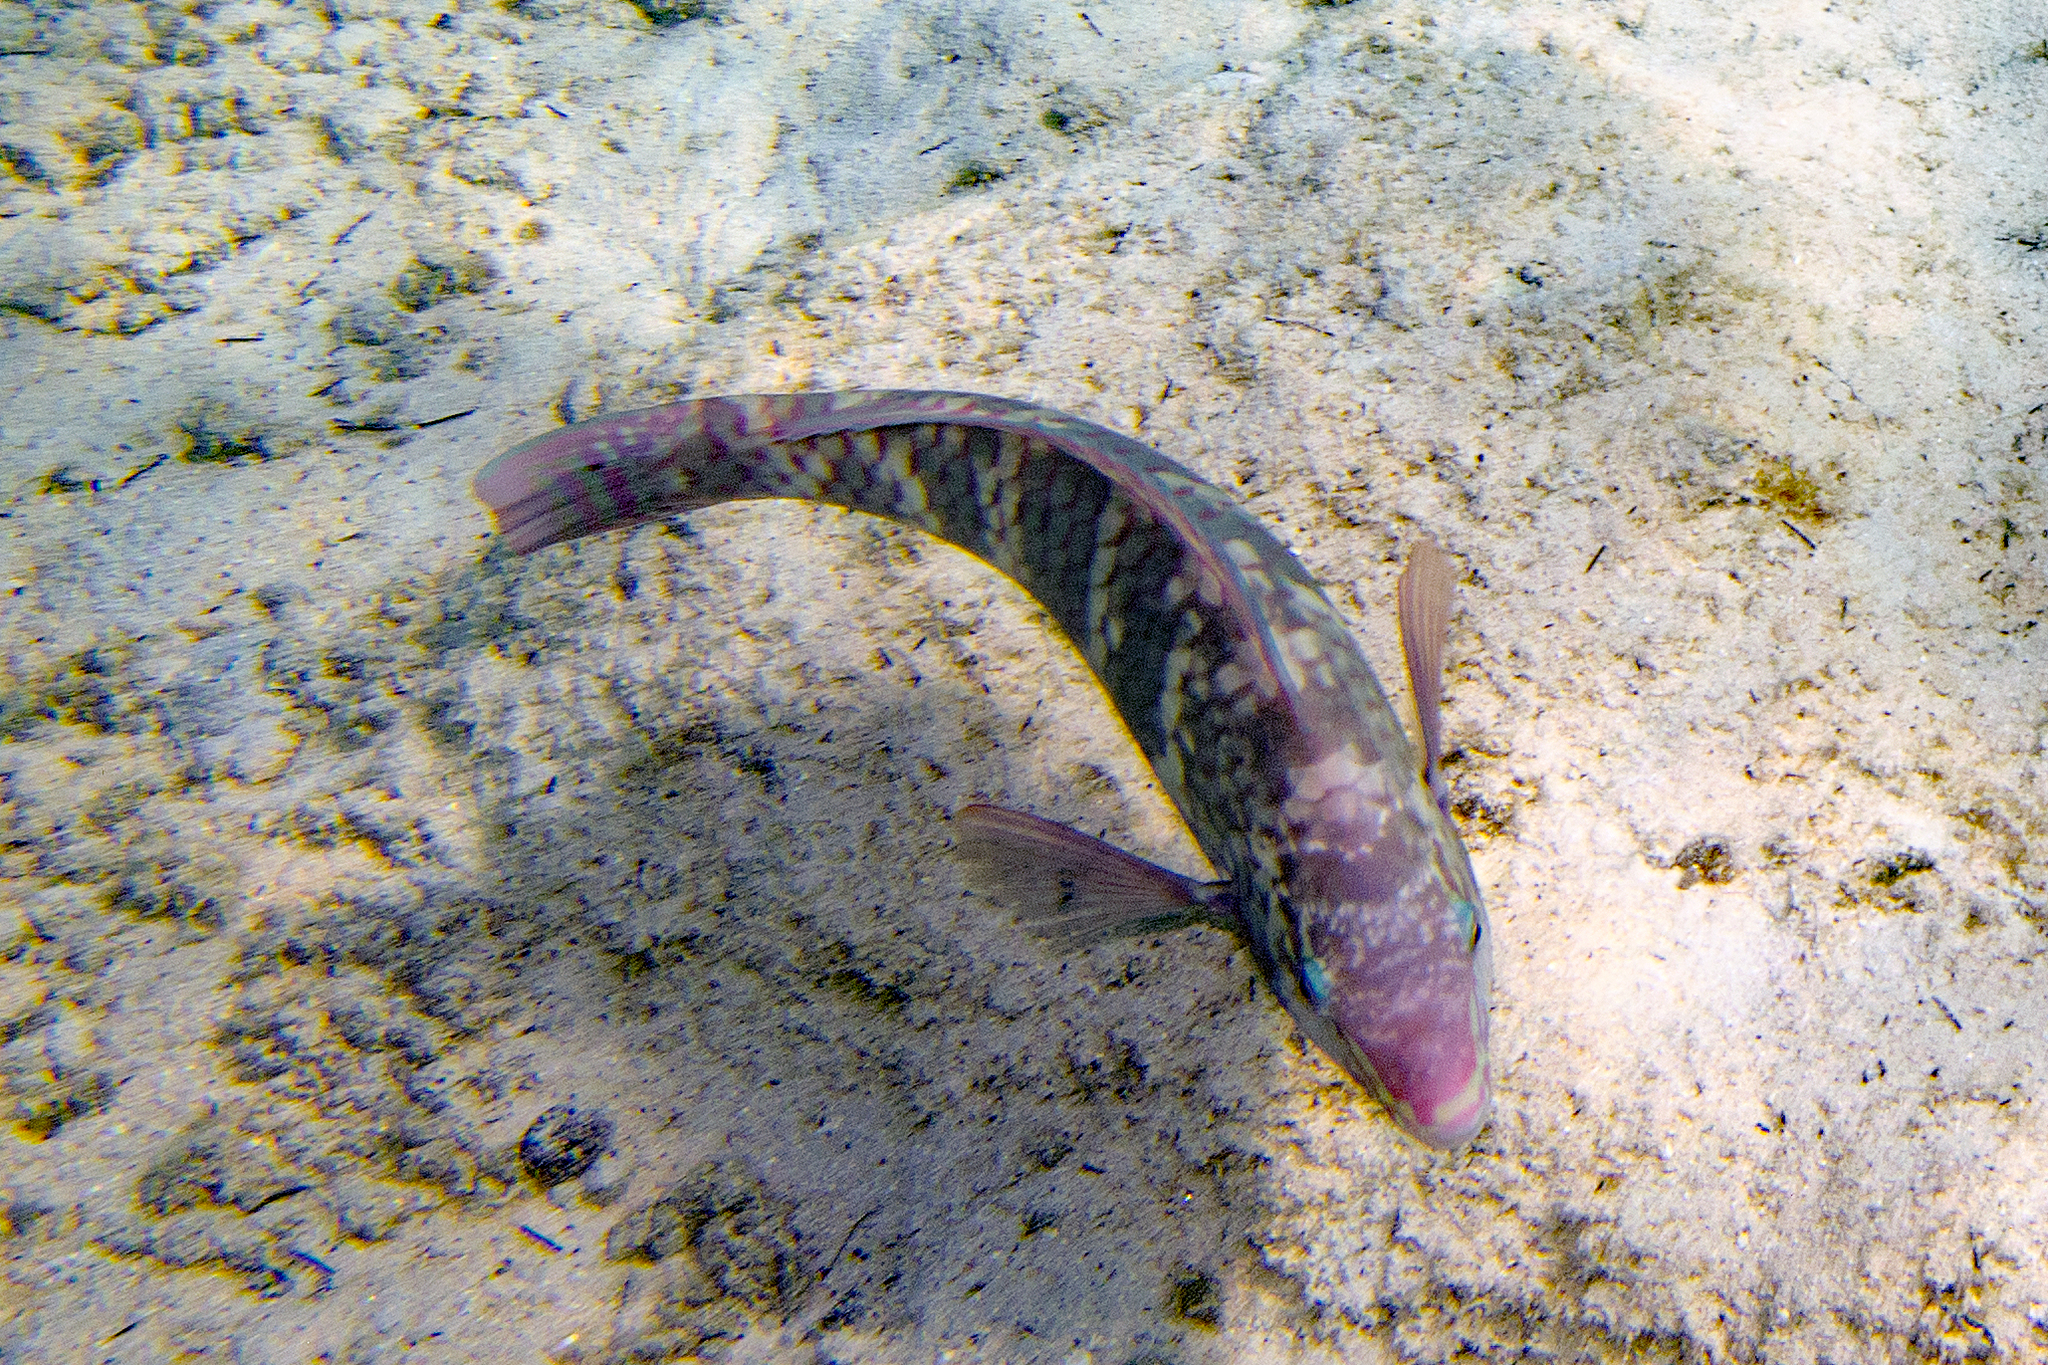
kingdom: Animalia
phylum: Chordata
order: Perciformes
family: Scaridae
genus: Scarus
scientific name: Scarus schlegeli
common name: Schlegel's parrotfish
